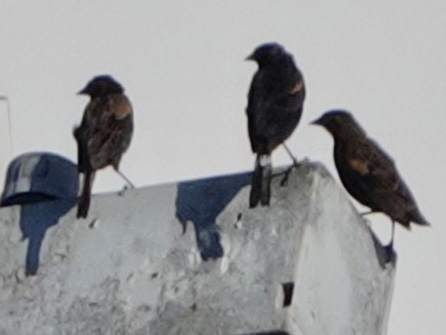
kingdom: Animalia
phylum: Chordata
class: Aves
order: Passeriformes
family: Icteridae
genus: Agelaius
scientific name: Agelaius phoeniceus
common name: Red-winged blackbird
